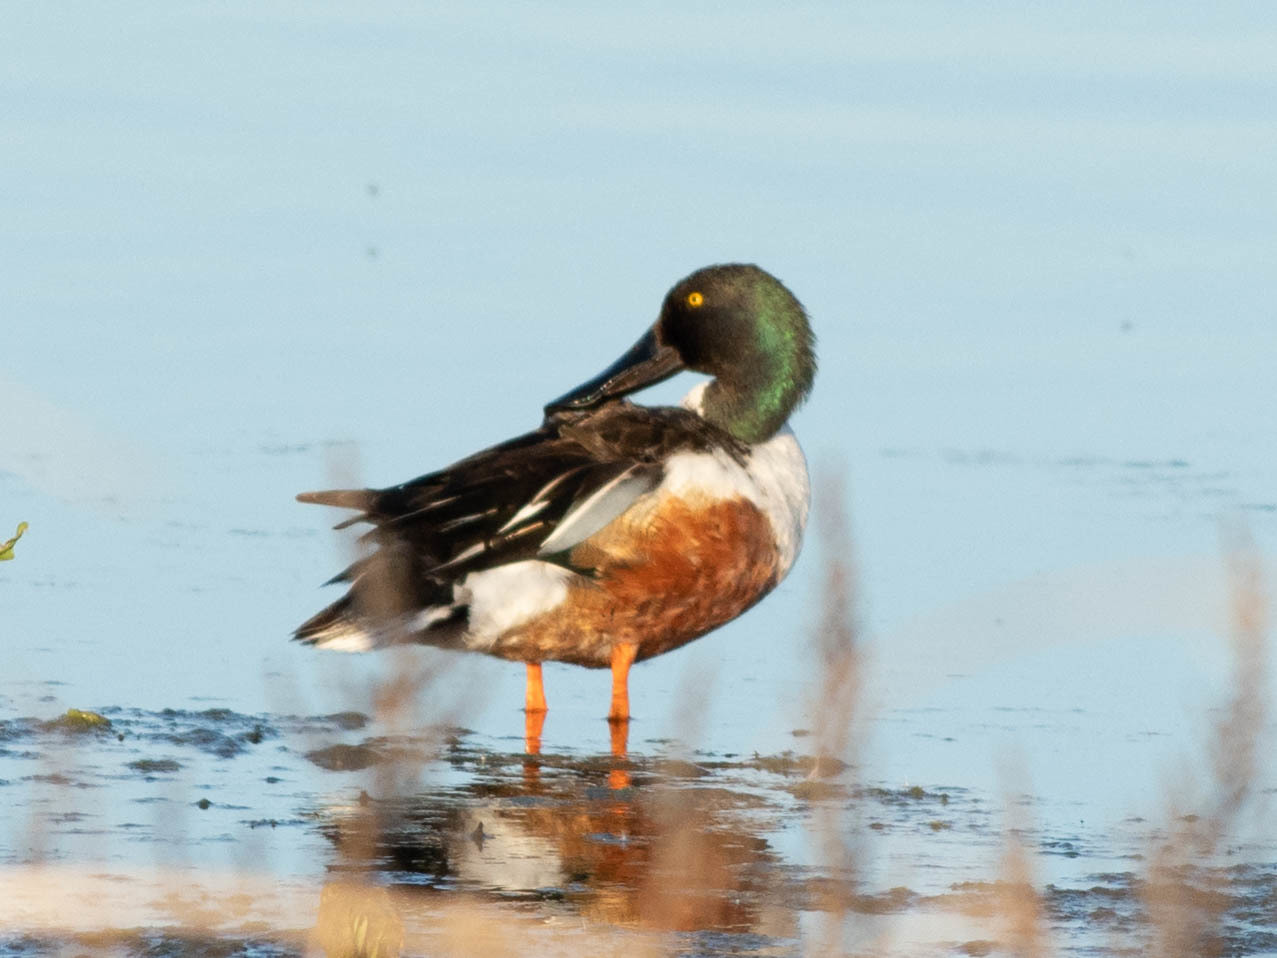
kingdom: Animalia
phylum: Chordata
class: Aves
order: Anseriformes
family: Anatidae
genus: Spatula
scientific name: Spatula clypeata
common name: Northern shoveler
